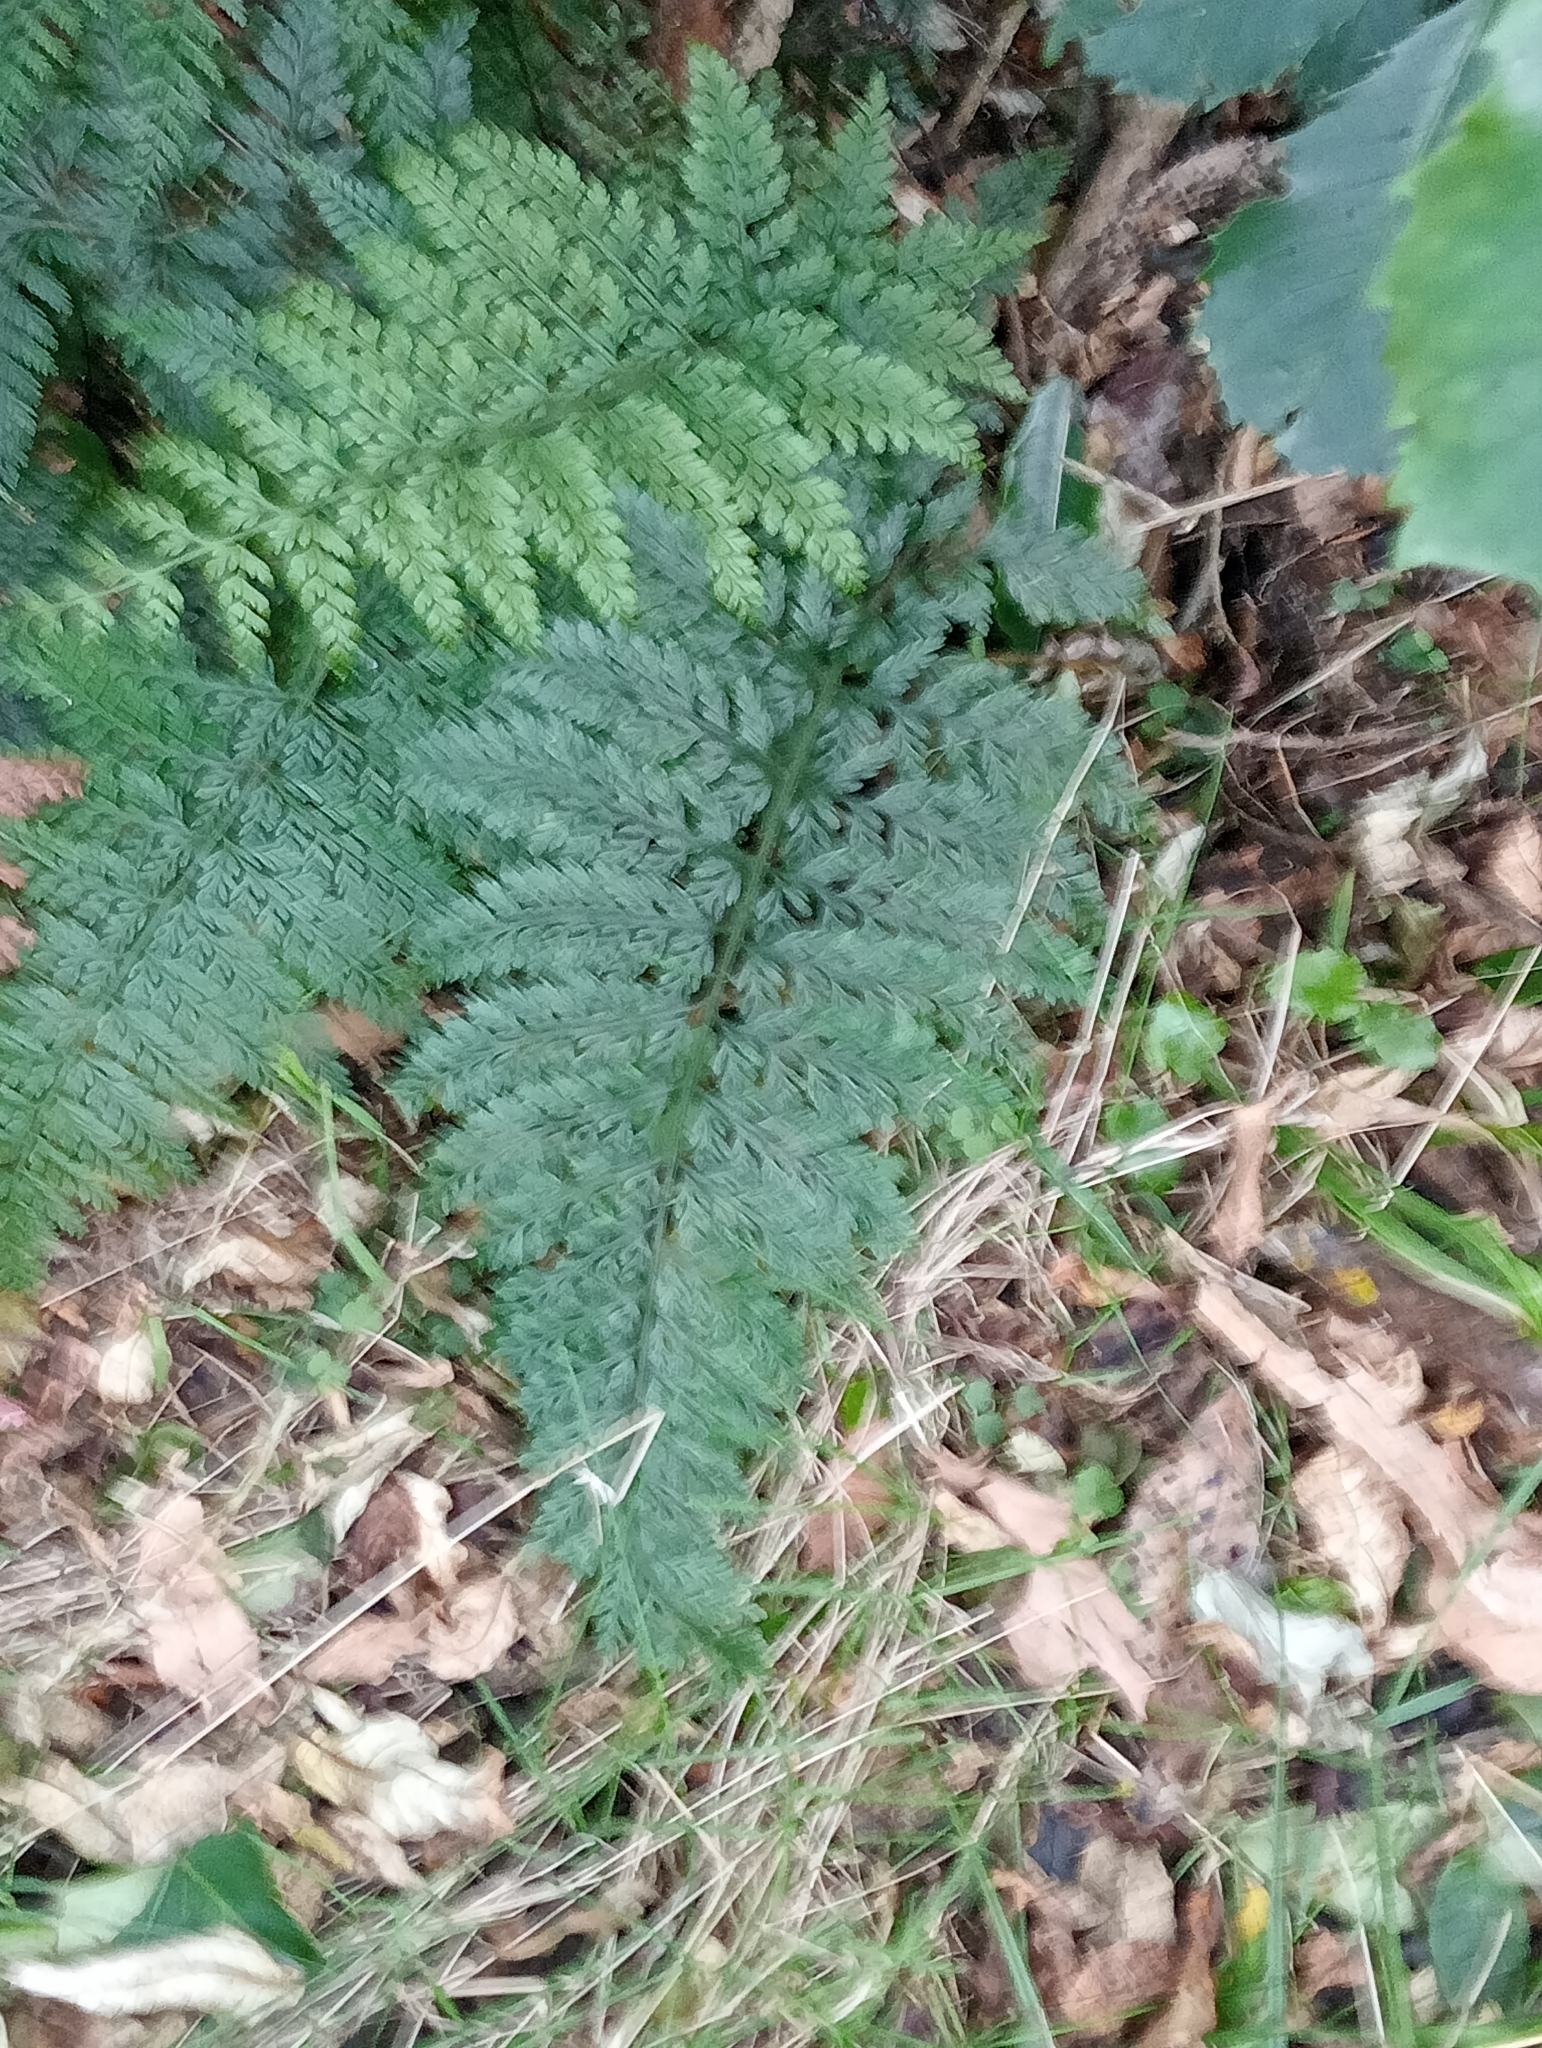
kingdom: Plantae
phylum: Tracheophyta
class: Polypodiopsida
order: Polypodiales
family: Aspleniaceae
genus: Asplenium
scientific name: Asplenium
